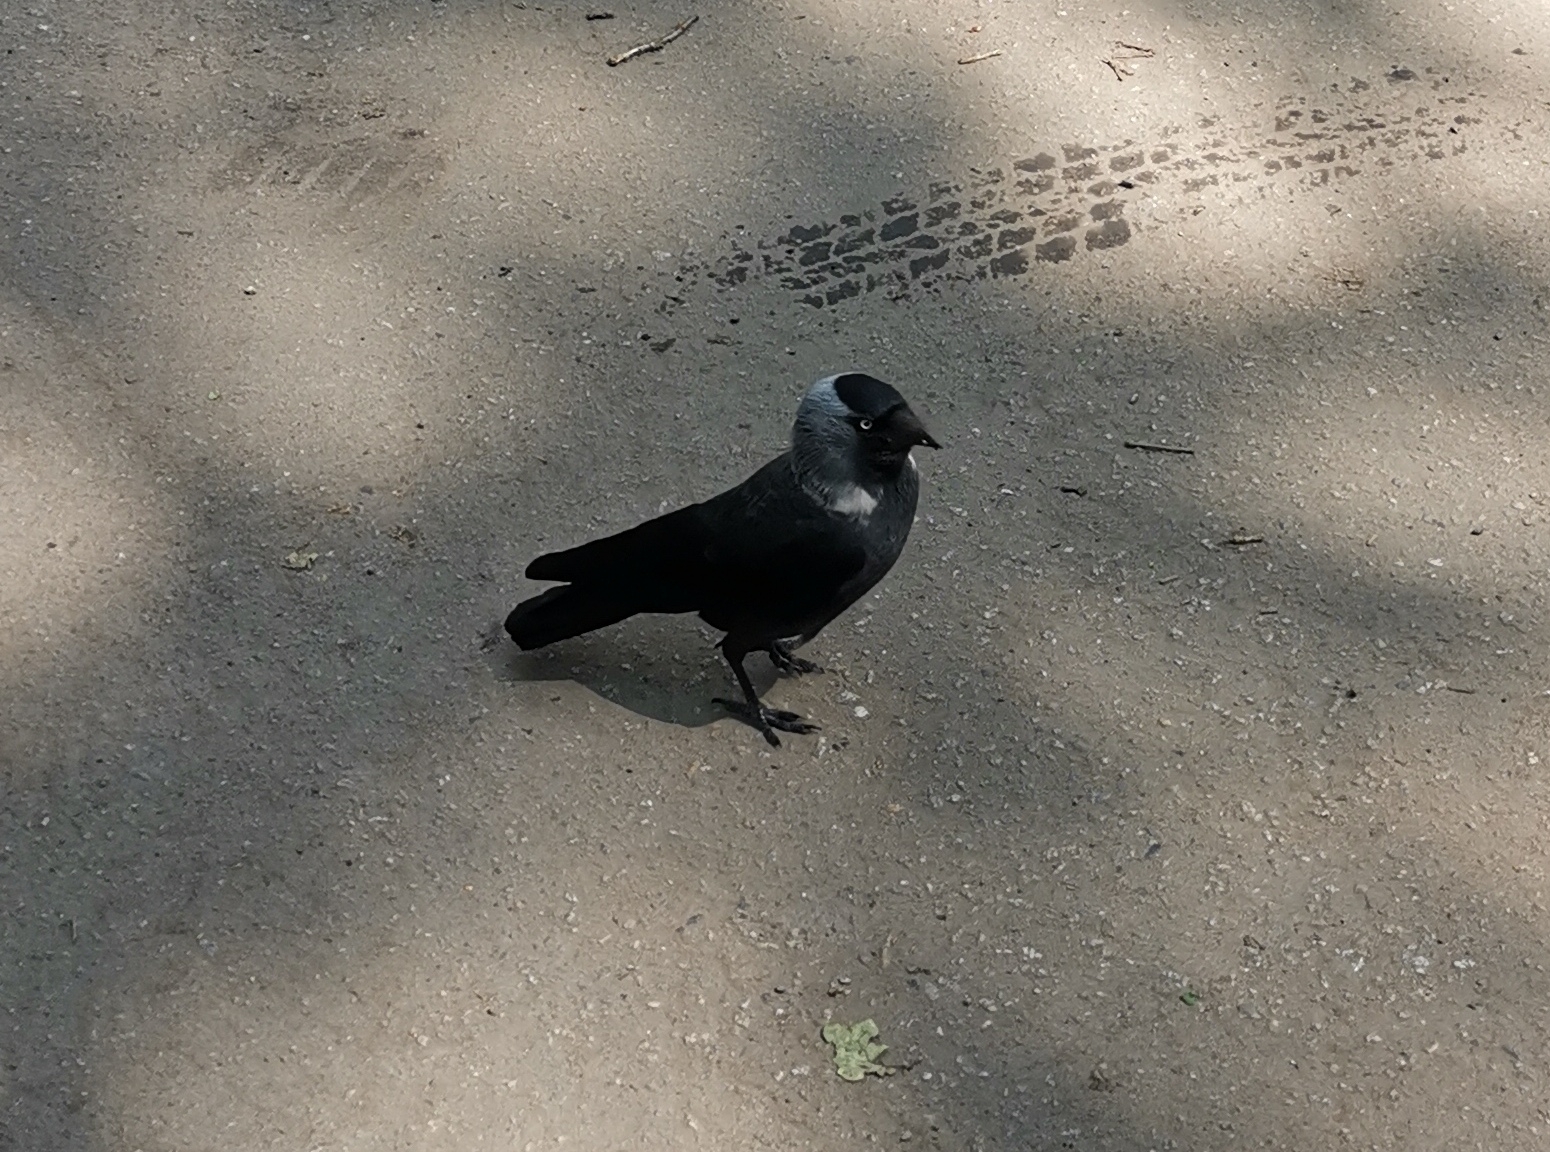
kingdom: Animalia
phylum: Chordata
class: Aves
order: Passeriformes
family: Corvidae
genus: Coloeus
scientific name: Coloeus monedula
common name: Western jackdaw
